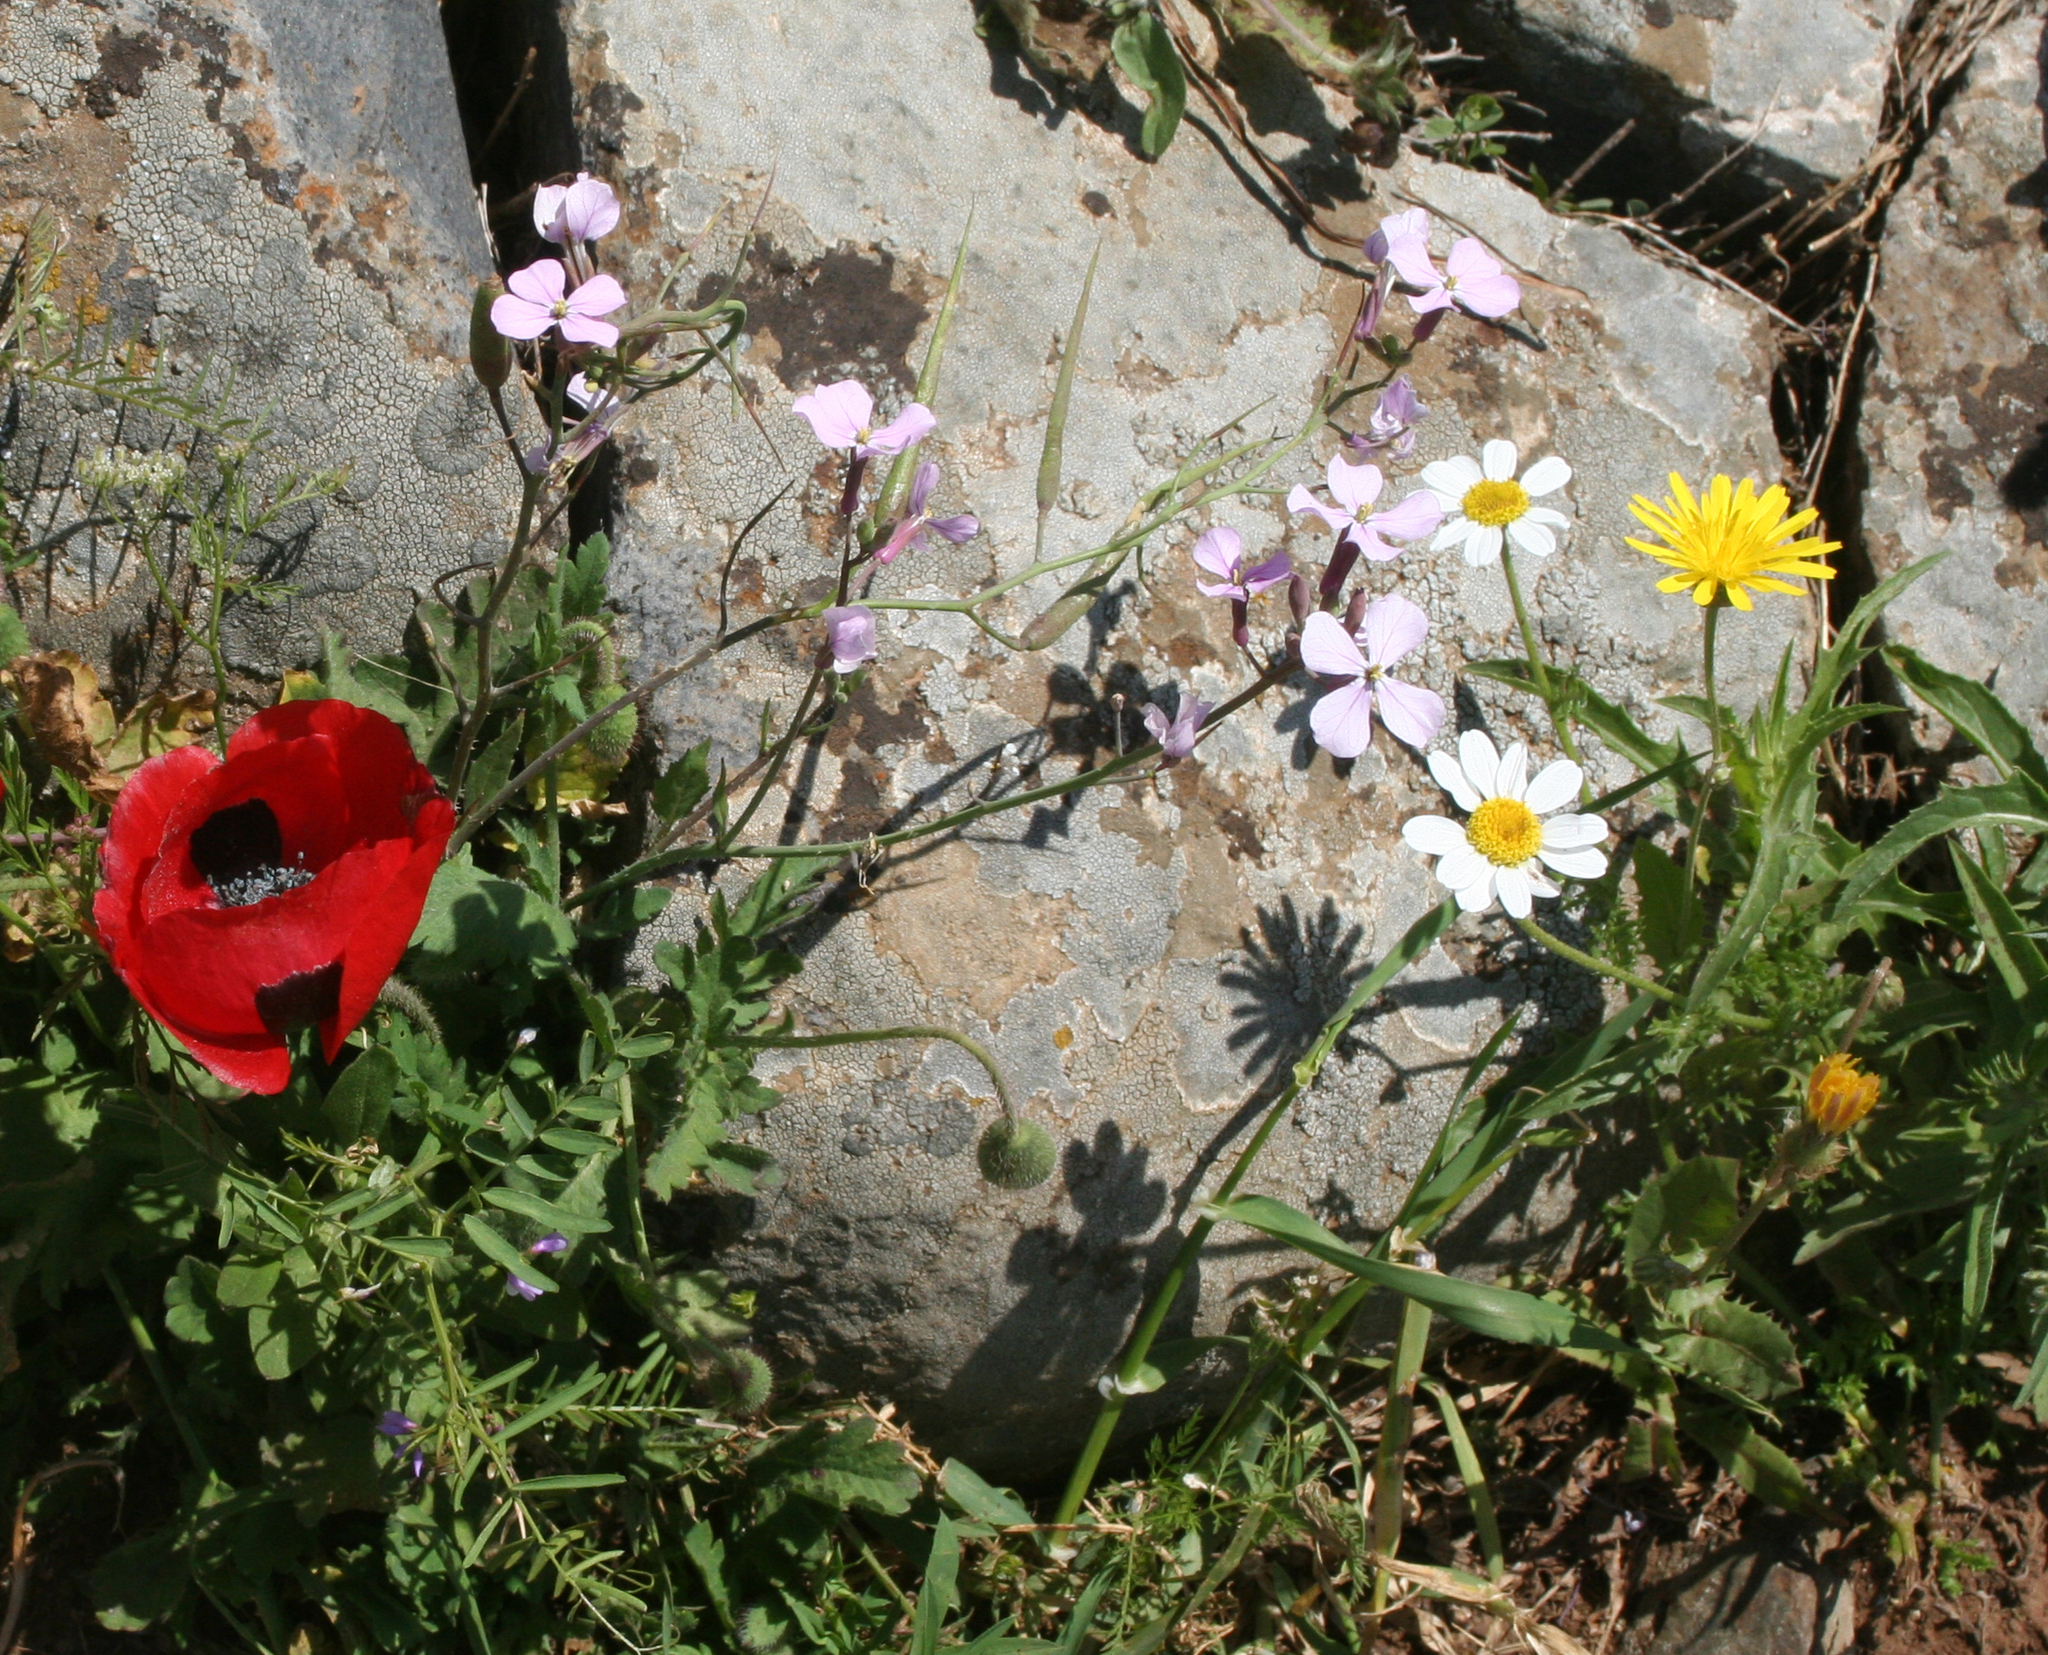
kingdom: Plantae
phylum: Tracheophyta
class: Magnoliopsida
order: Brassicales
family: Brassicaceae
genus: Raphanus
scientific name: Raphanus raphanistrum
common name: Wild radish
